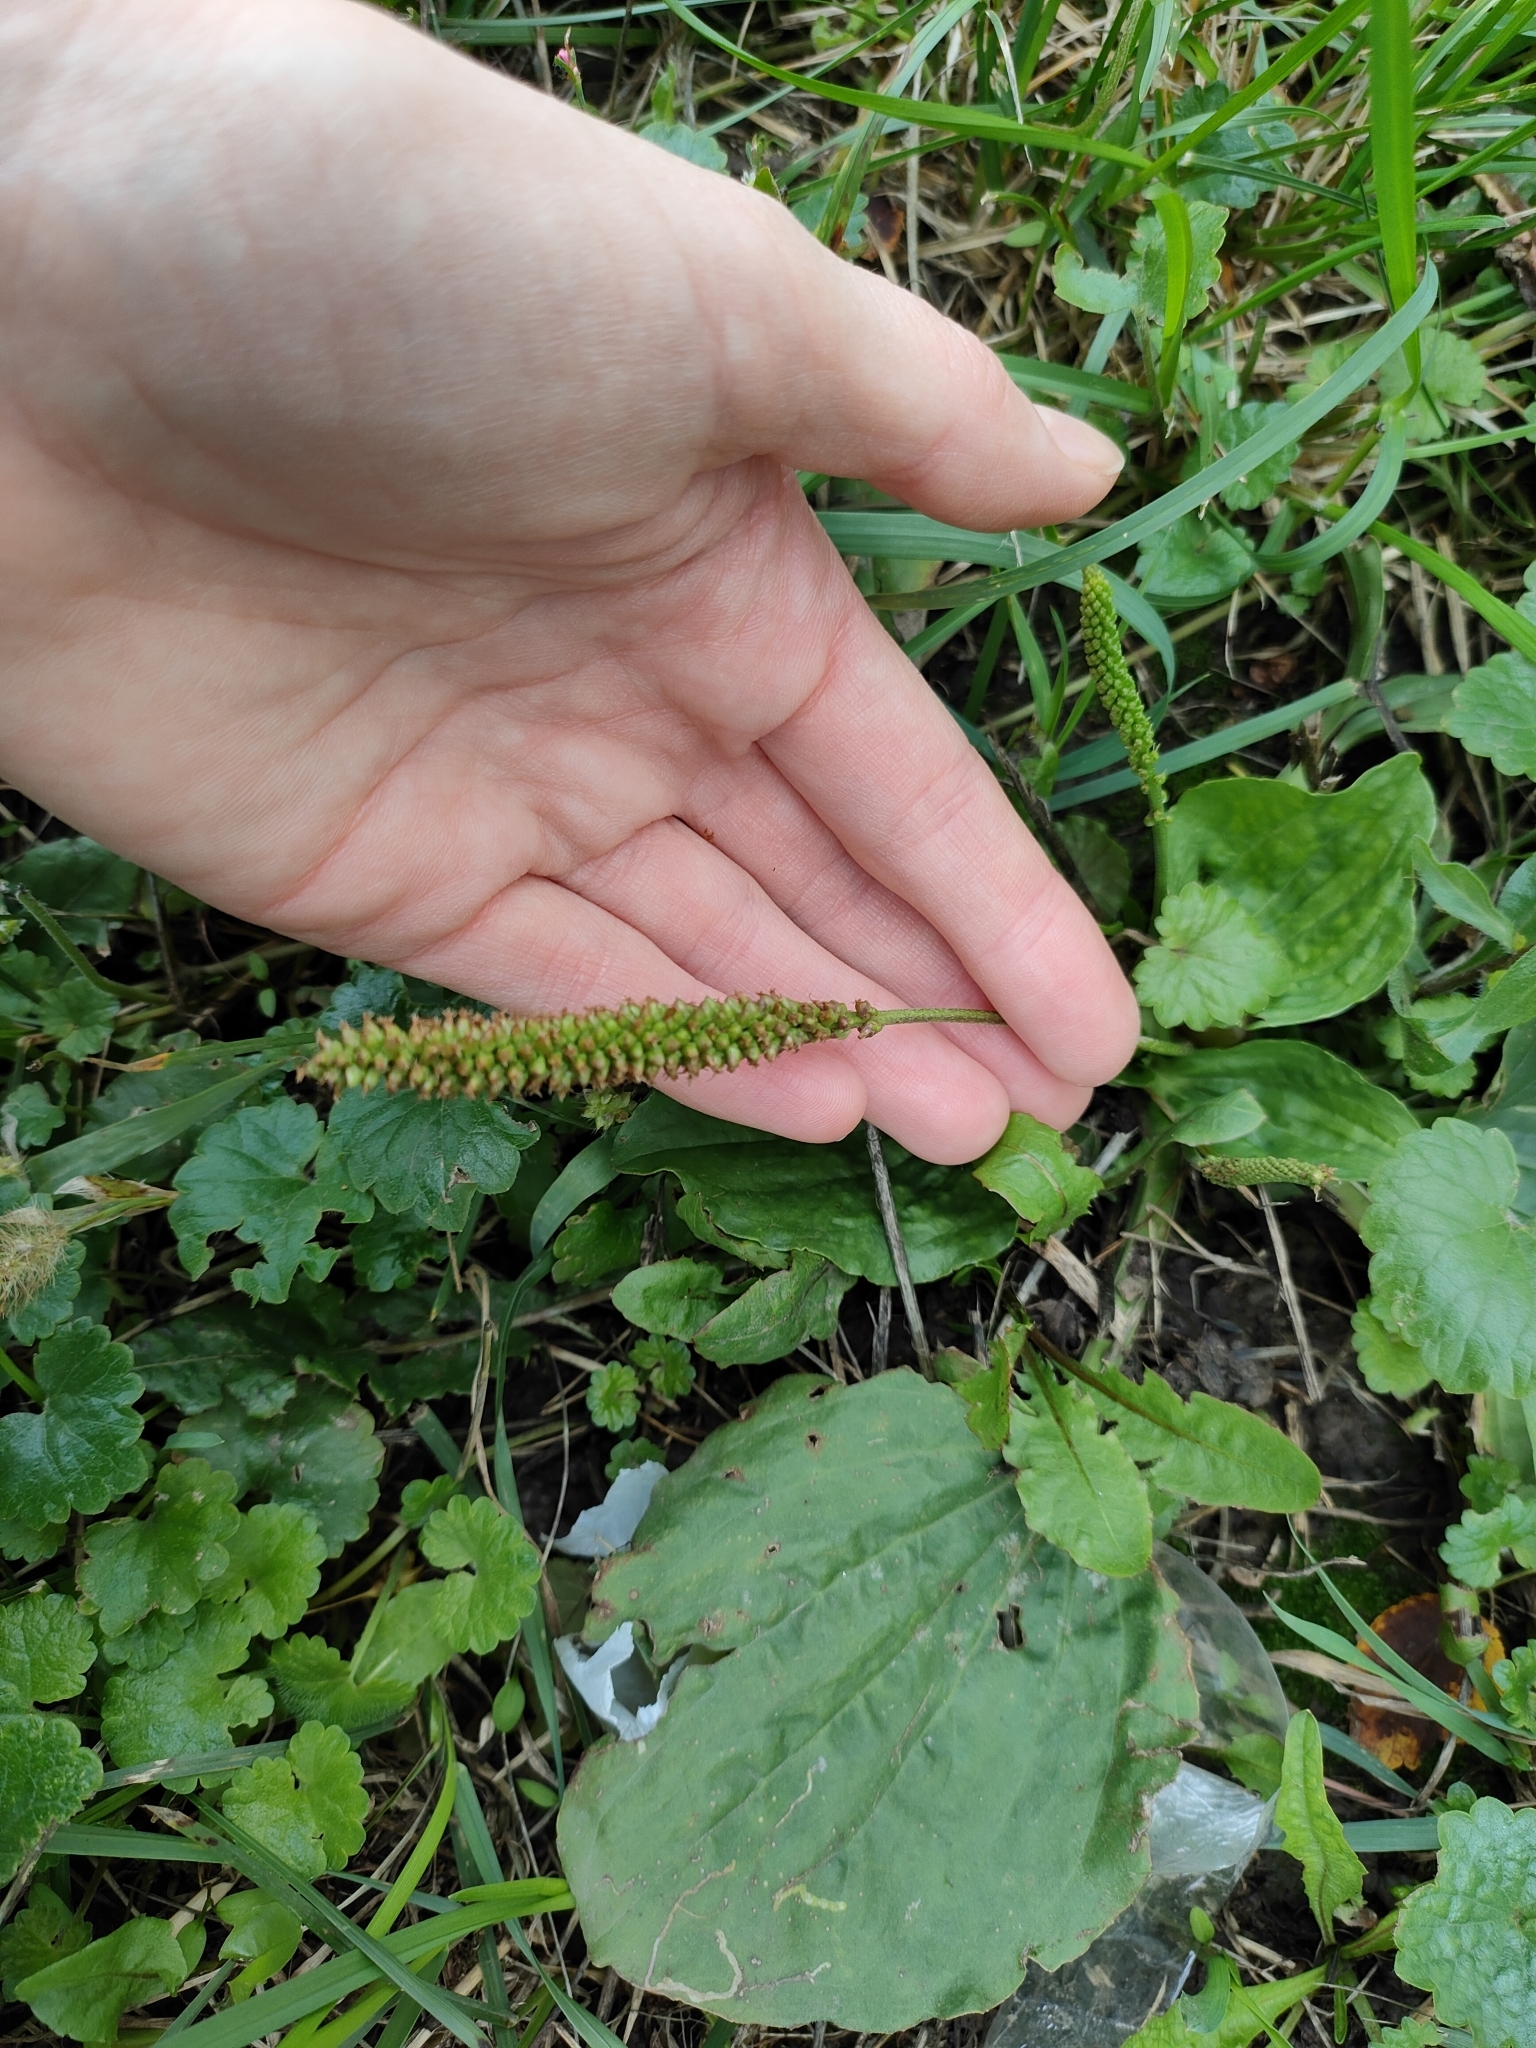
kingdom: Plantae
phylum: Tracheophyta
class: Magnoliopsida
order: Lamiales
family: Plantaginaceae
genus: Plantago
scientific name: Plantago major
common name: Common plantain
